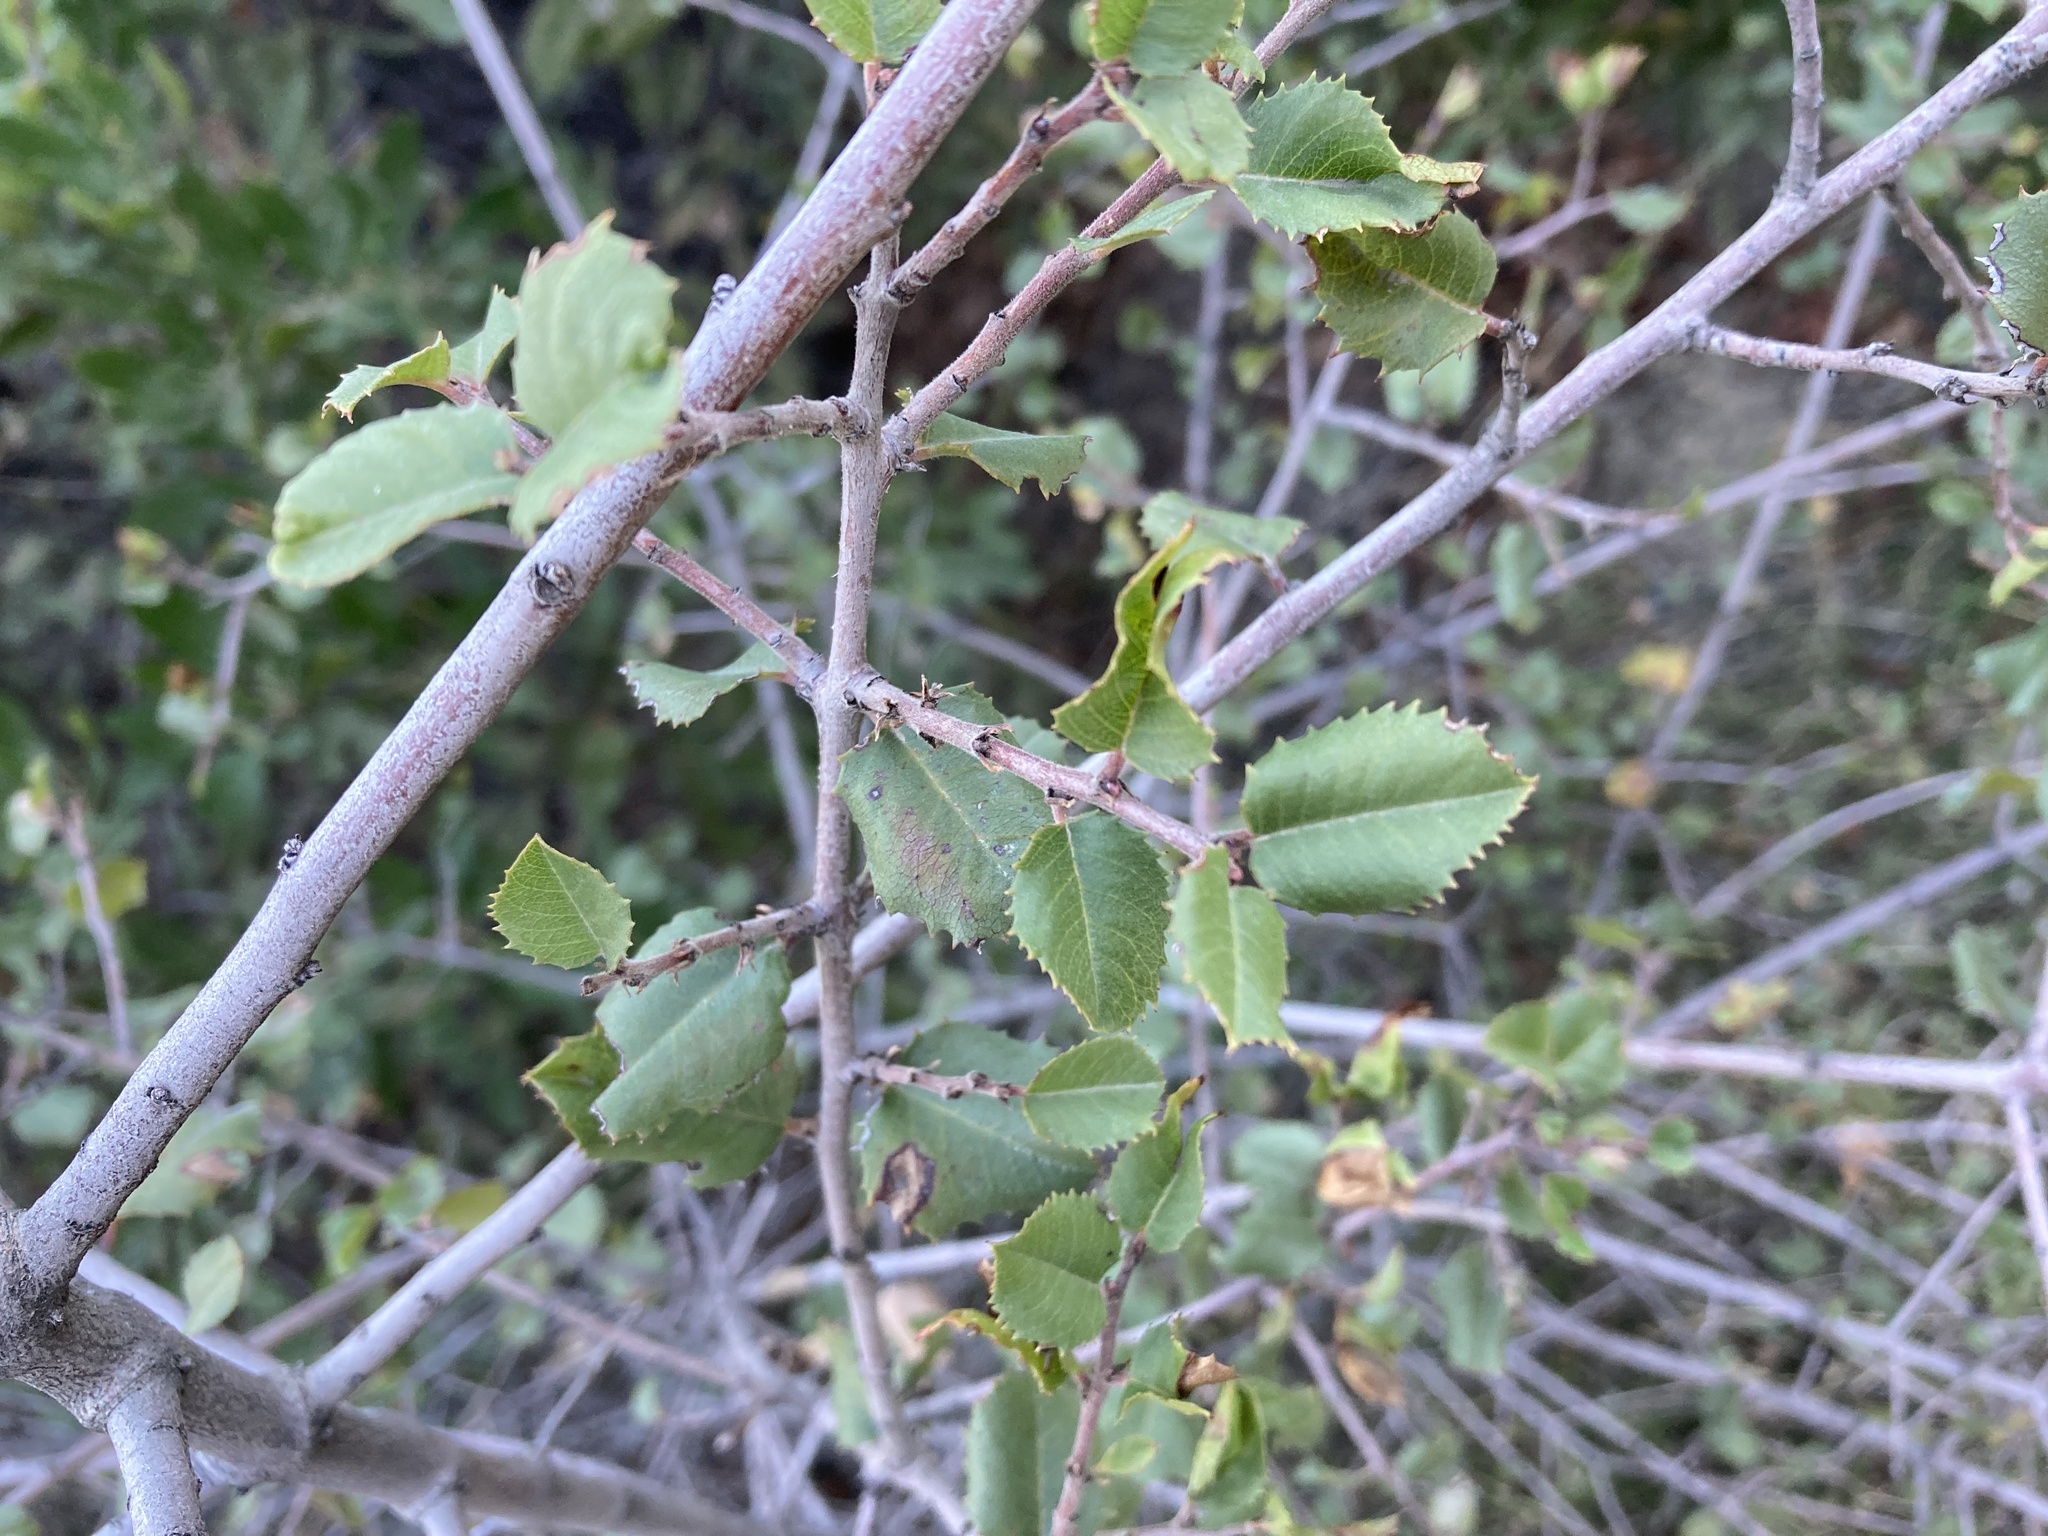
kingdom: Plantae
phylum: Tracheophyta
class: Magnoliopsida
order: Ranunculales
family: Ranunculaceae
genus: Clematis
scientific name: Clematis lasiantha
